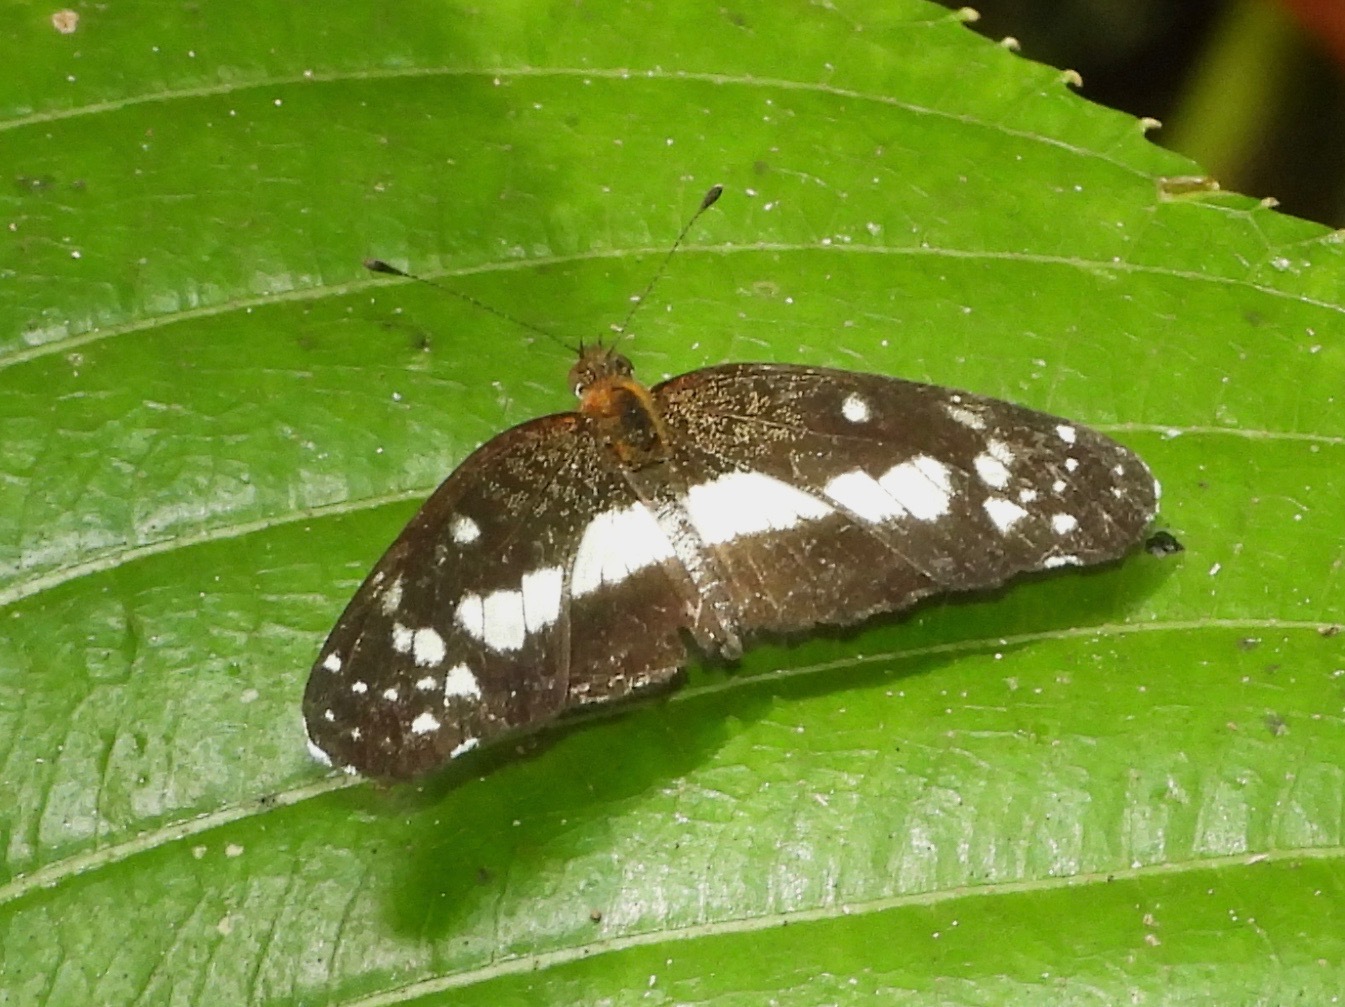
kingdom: Animalia
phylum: Arthropoda
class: Insecta
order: Lepidoptera
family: Nymphalidae
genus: Castilia
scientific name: Castilia ofella
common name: White-dotted crescent
